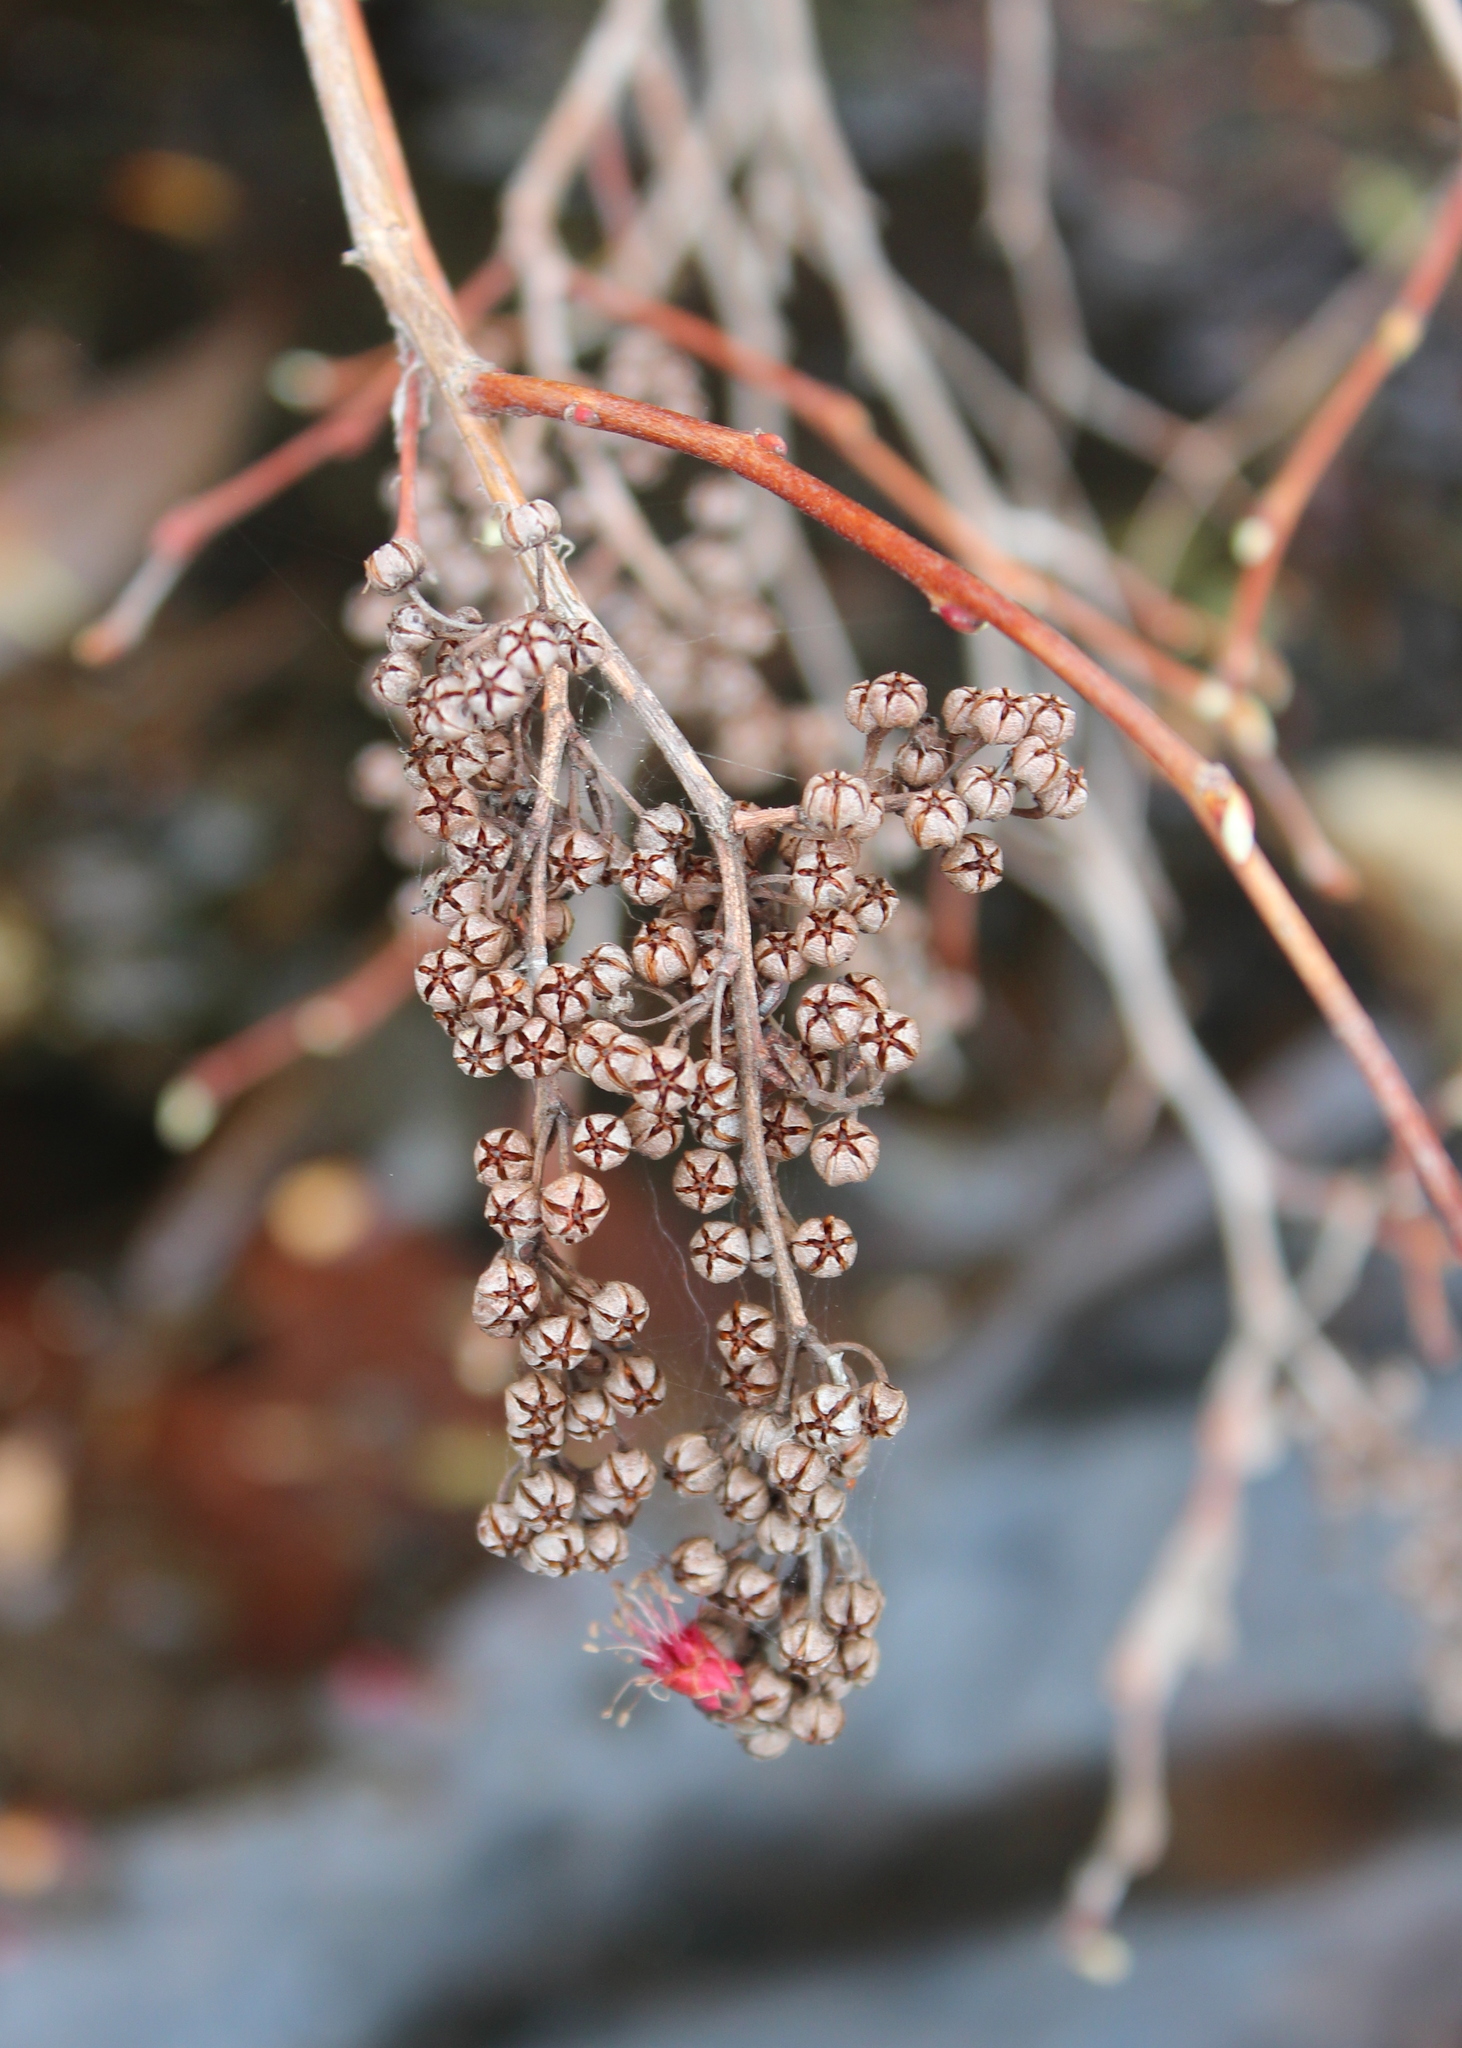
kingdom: Plantae
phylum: Tracheophyta
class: Magnoliopsida
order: Ericales
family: Ericaceae
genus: Lyonia
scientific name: Lyonia ligustrina
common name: Maleberry
